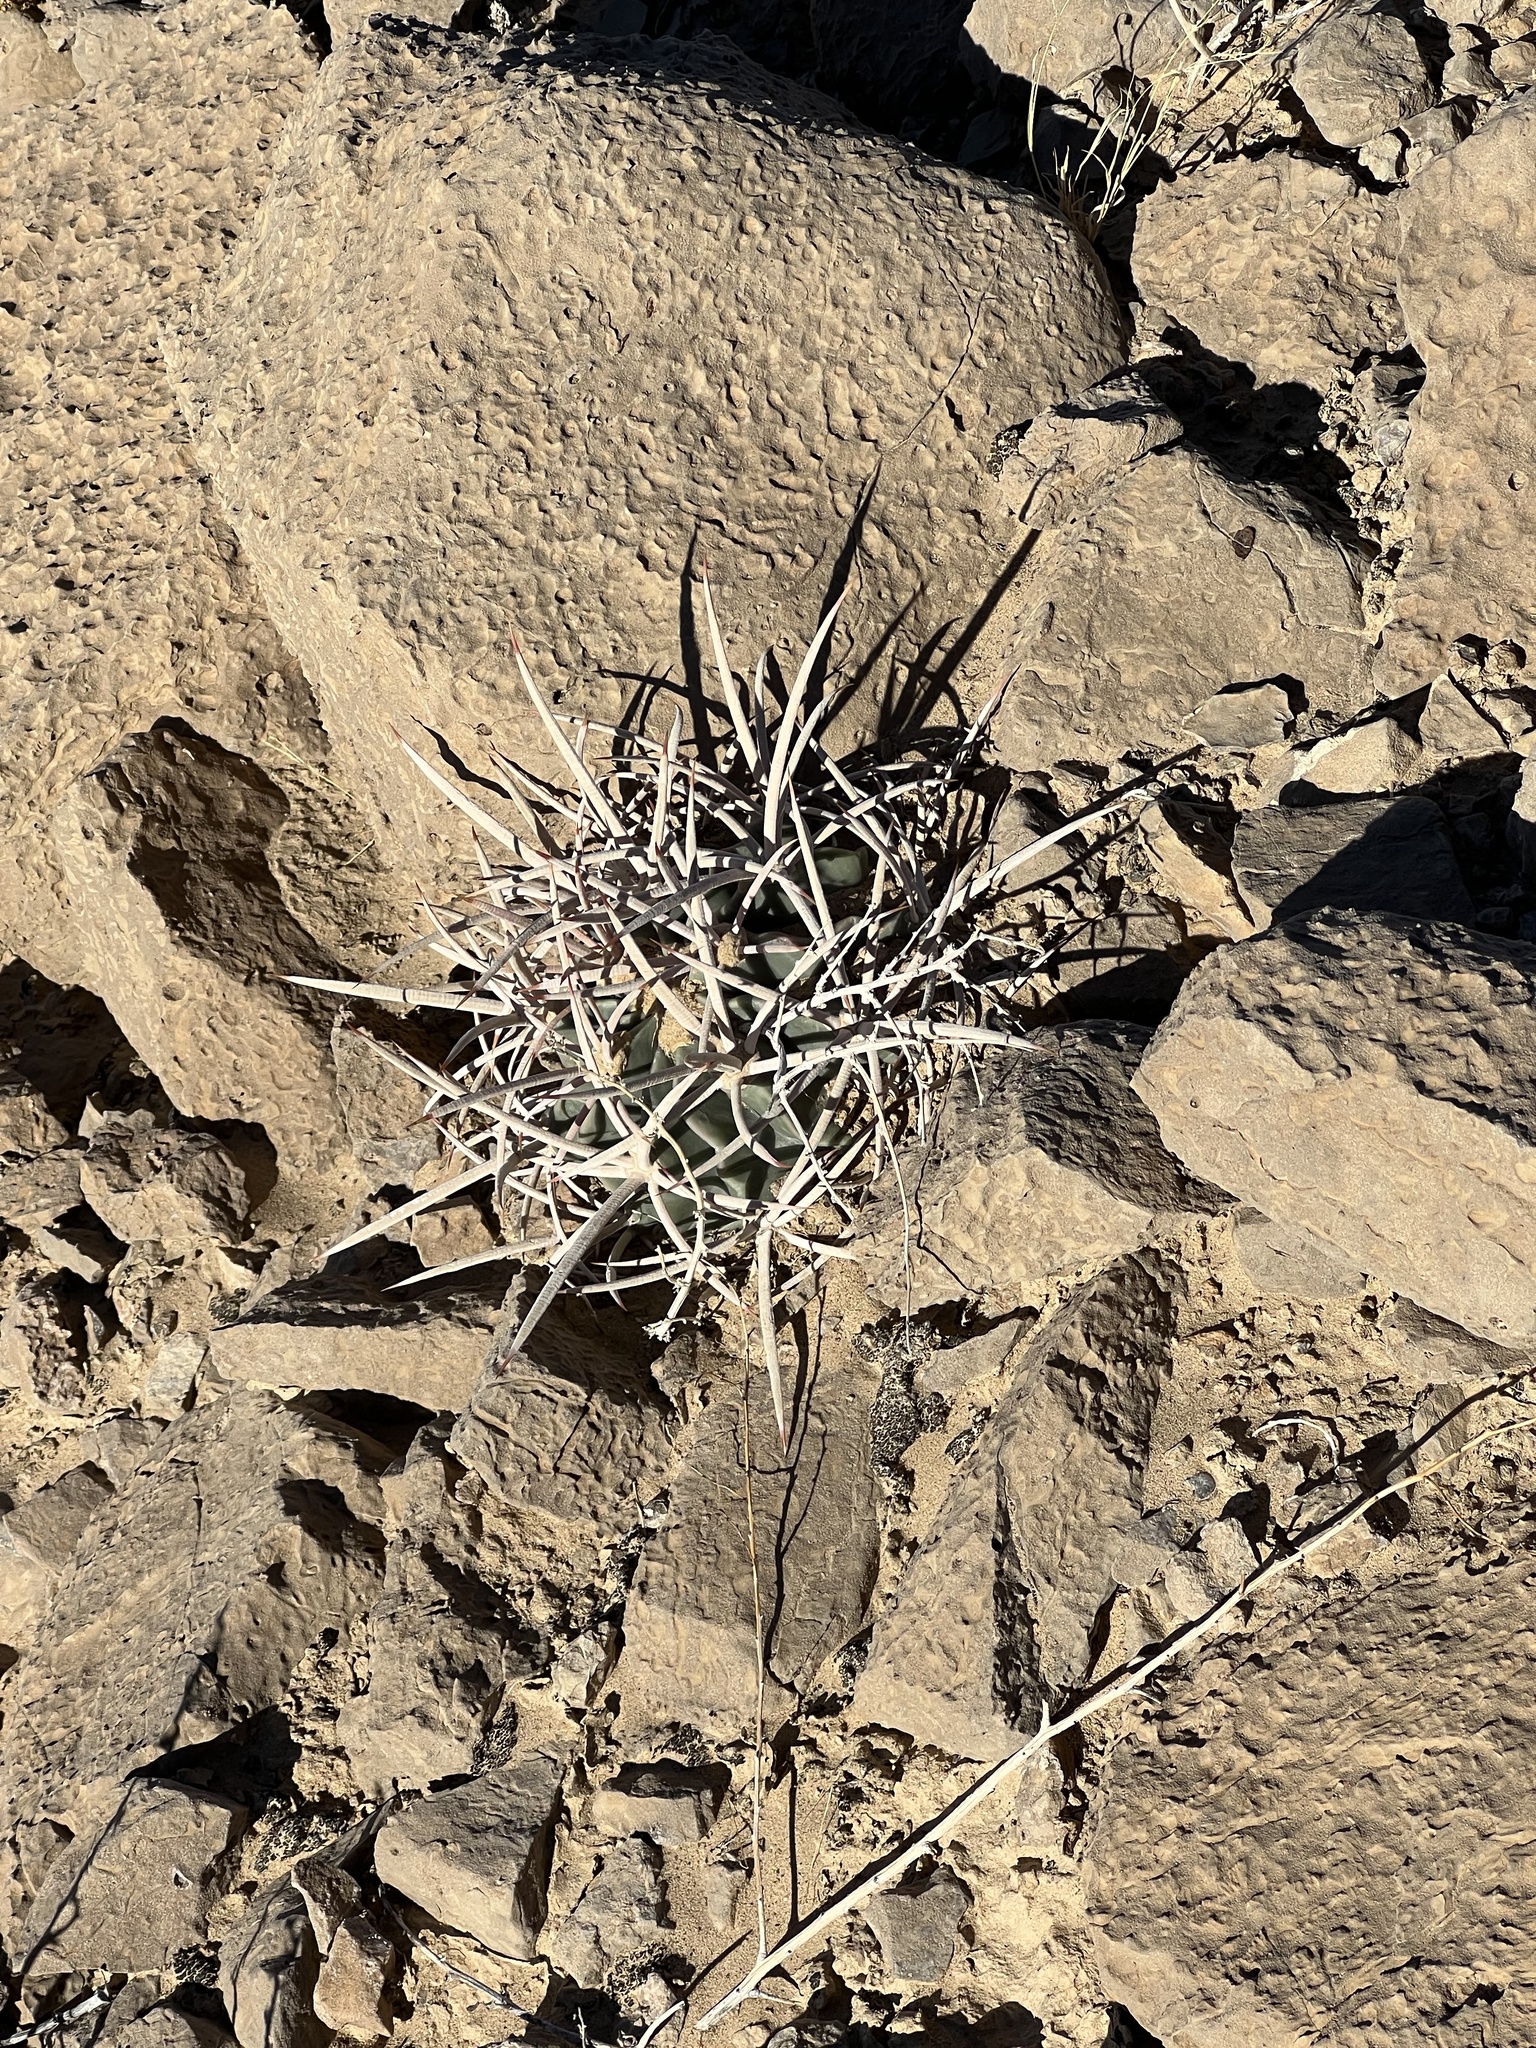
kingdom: Plantae
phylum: Tracheophyta
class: Magnoliopsida
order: Caryophyllales
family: Cactaceae
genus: Echinocactus
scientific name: Echinocactus polycephalus
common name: Cottontop cactus
